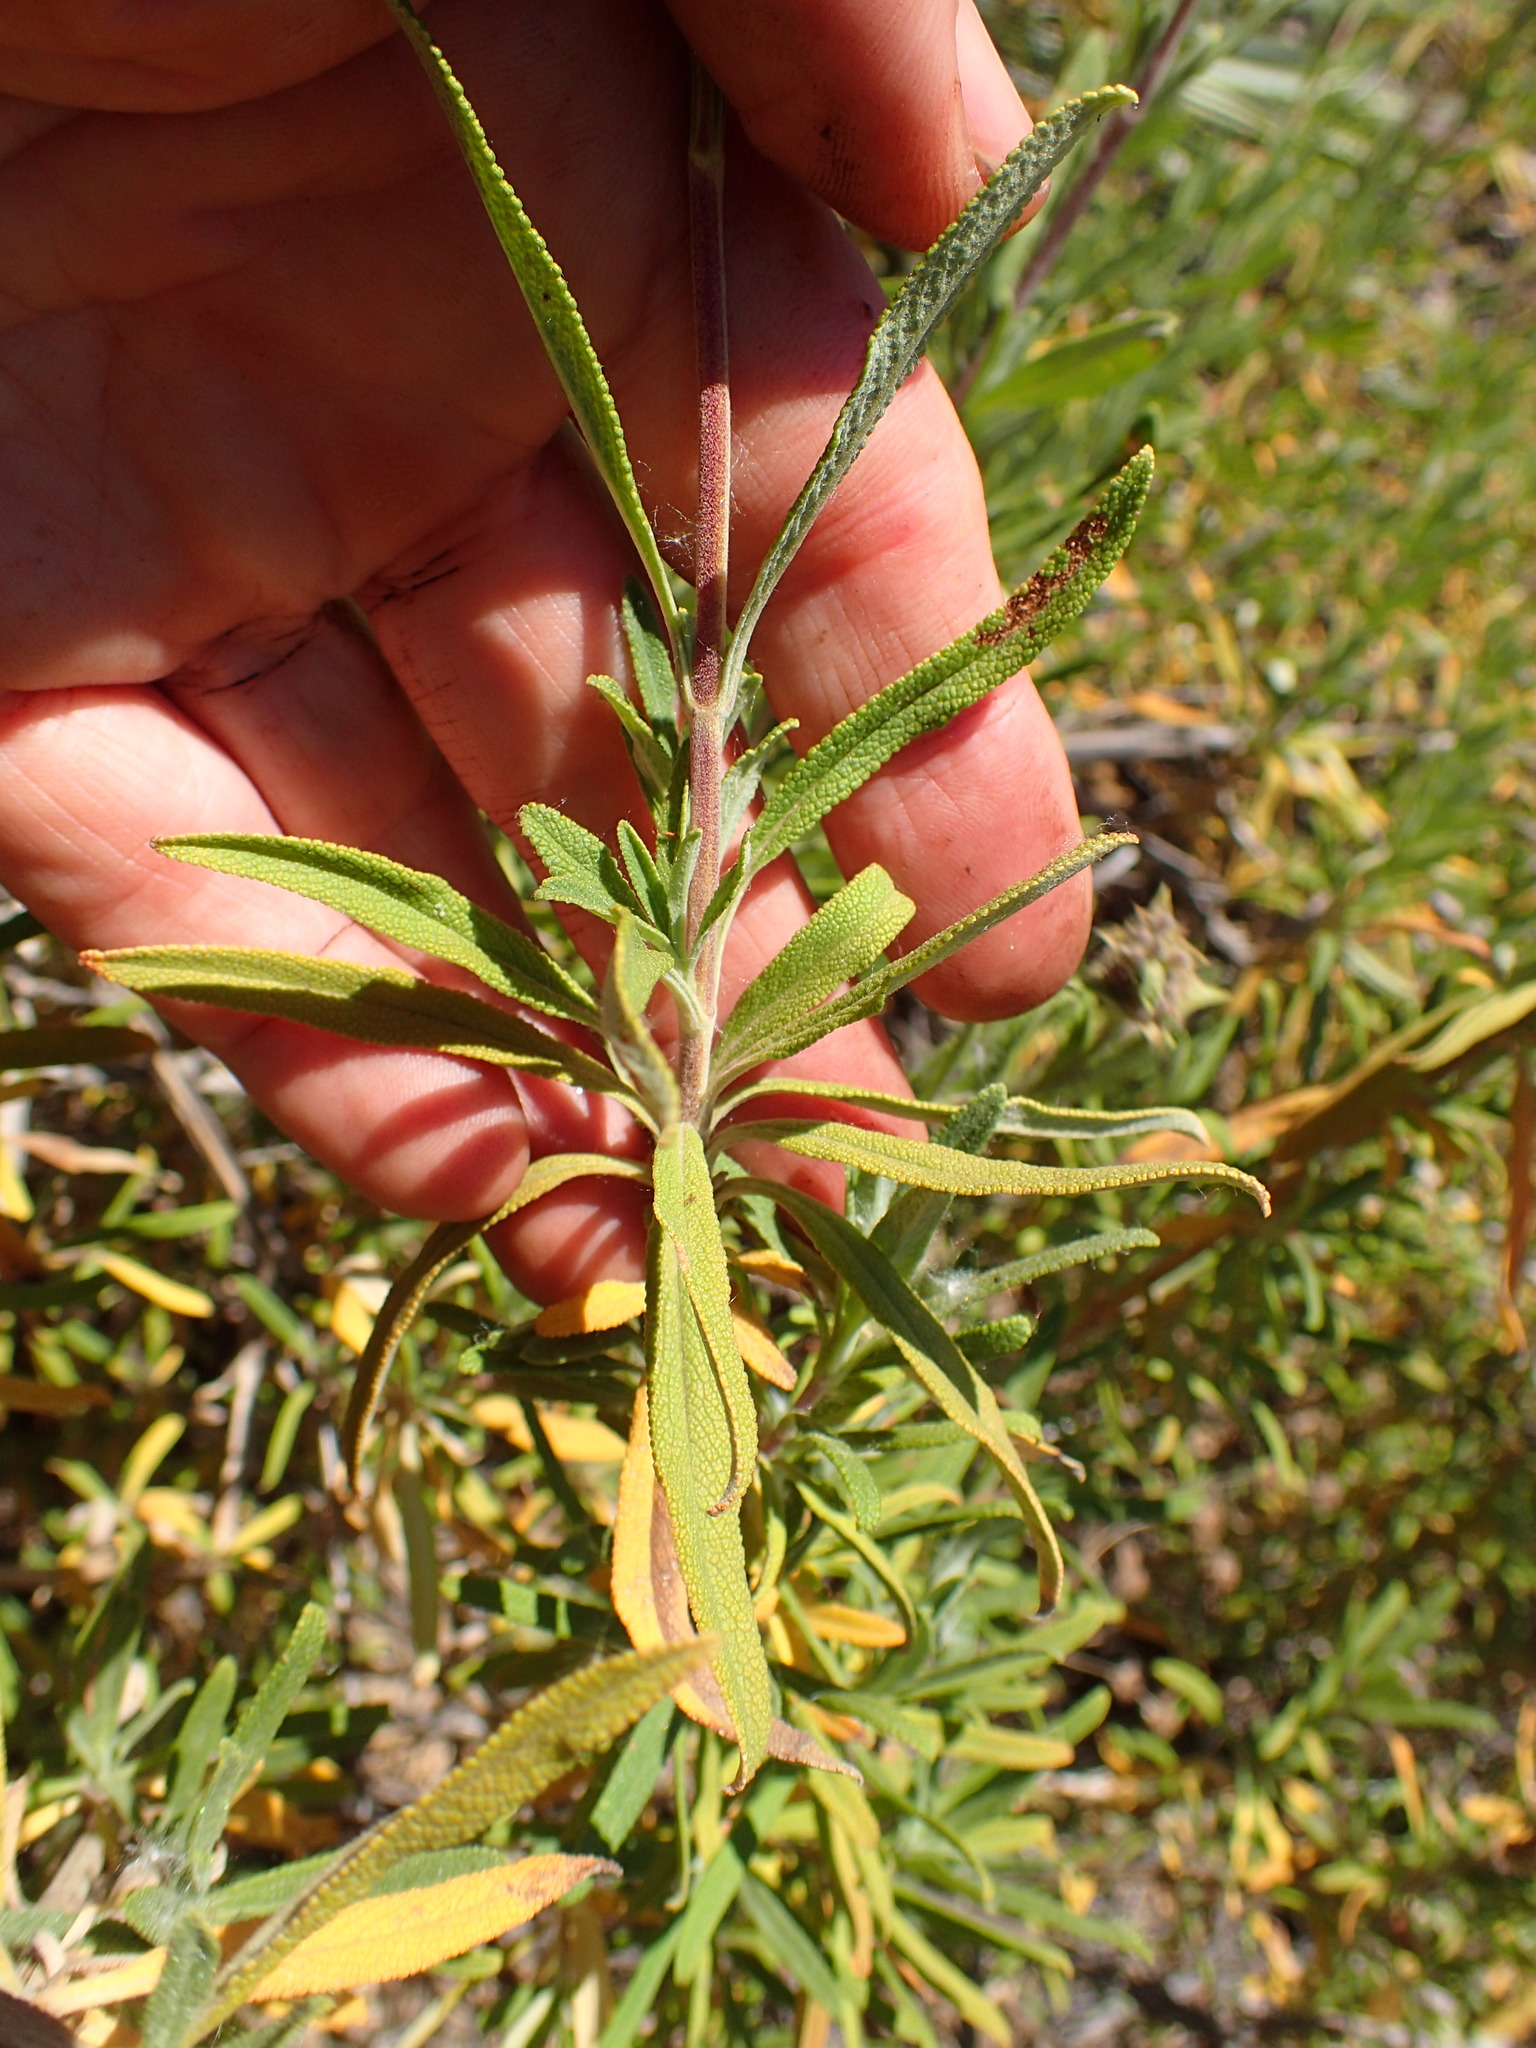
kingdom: Plantae
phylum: Tracheophyta
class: Magnoliopsida
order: Lamiales
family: Lamiaceae
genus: Salvia
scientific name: Salvia mellifera
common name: Black sage
